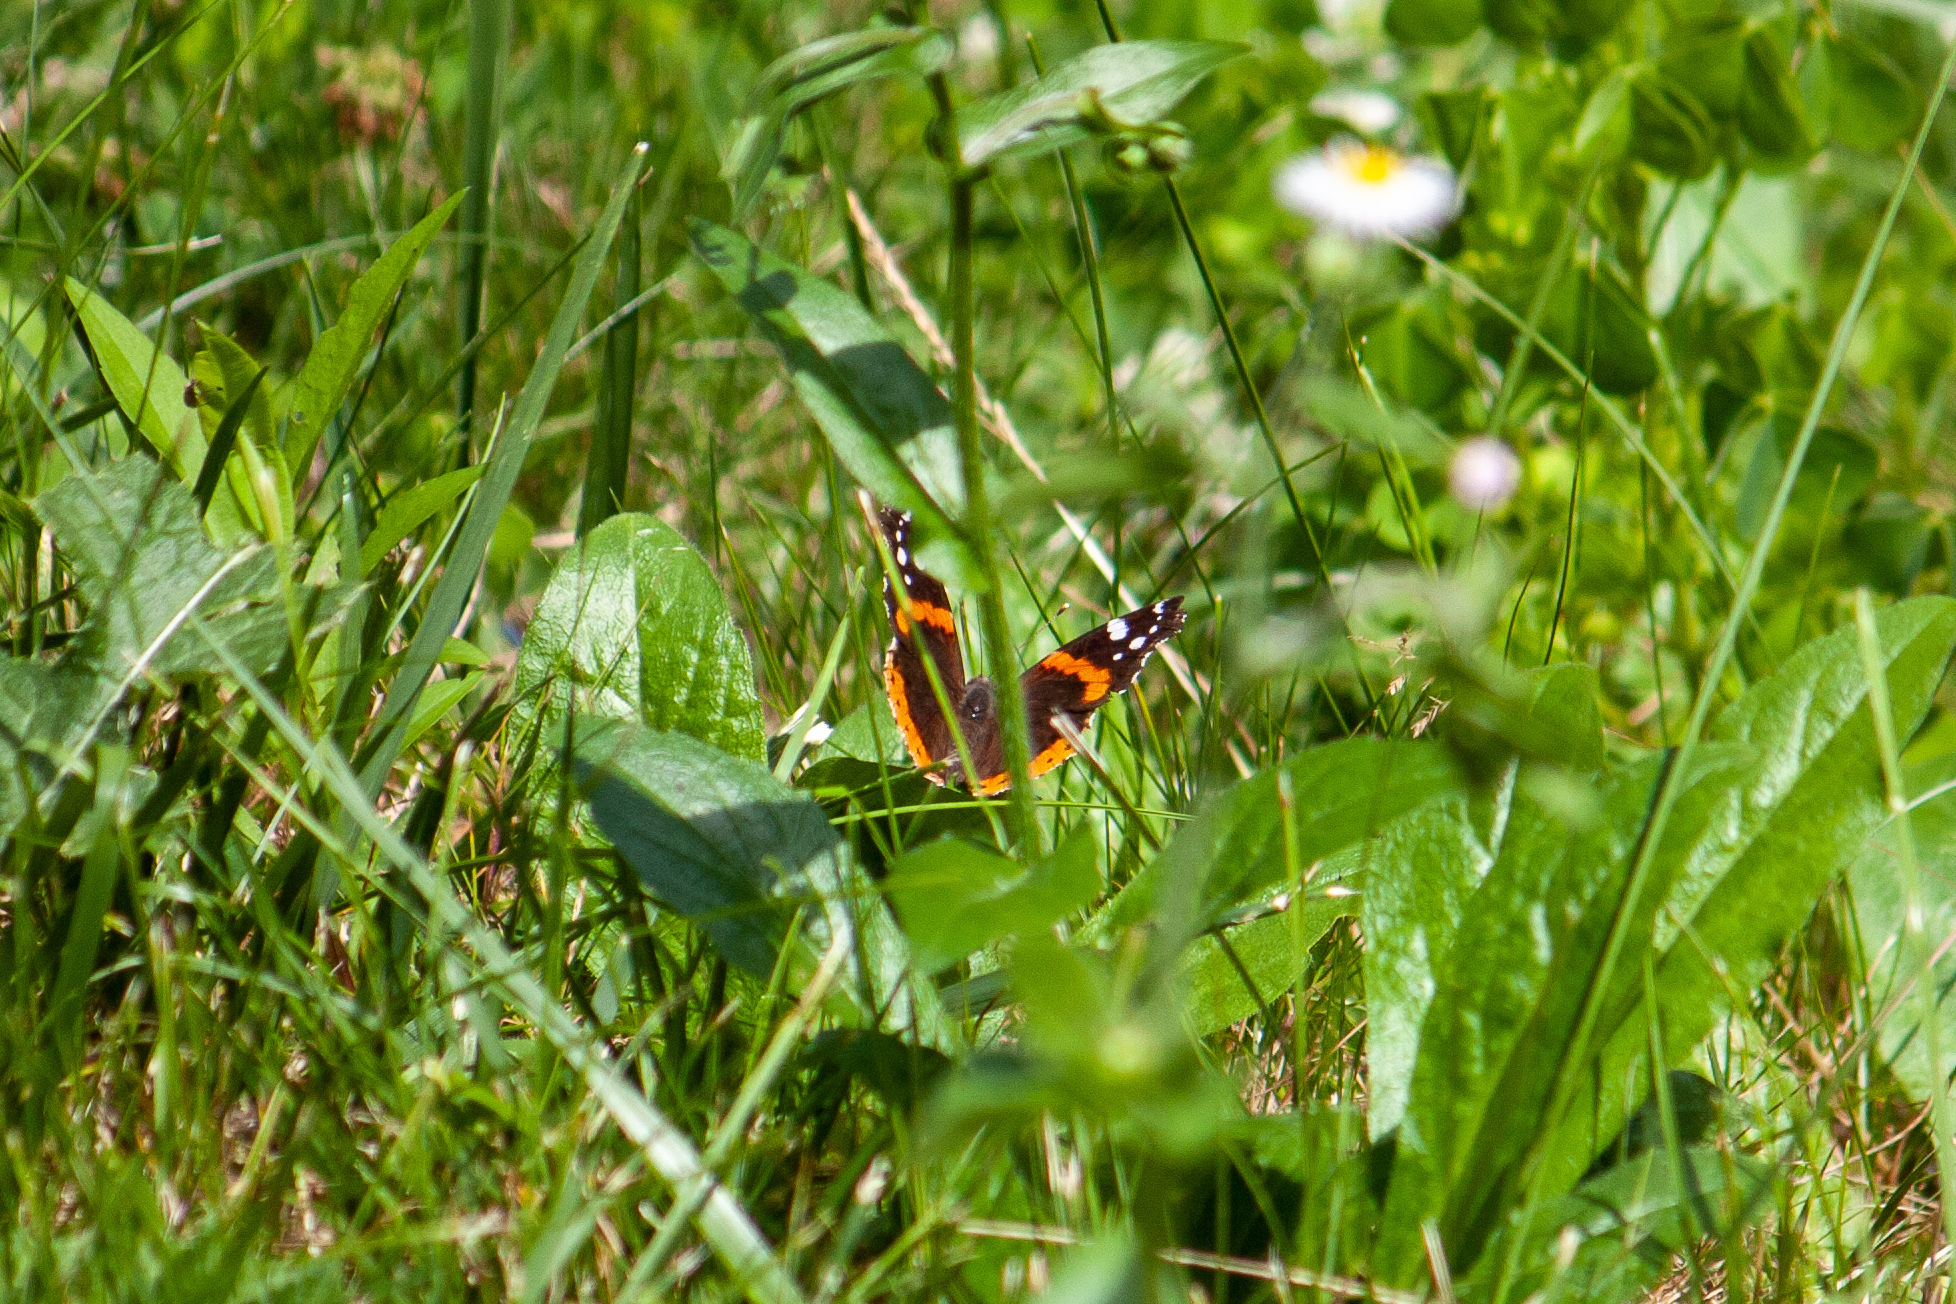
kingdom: Animalia
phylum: Arthropoda
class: Insecta
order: Lepidoptera
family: Nymphalidae
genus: Vanessa
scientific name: Vanessa atalanta
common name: Red admiral
